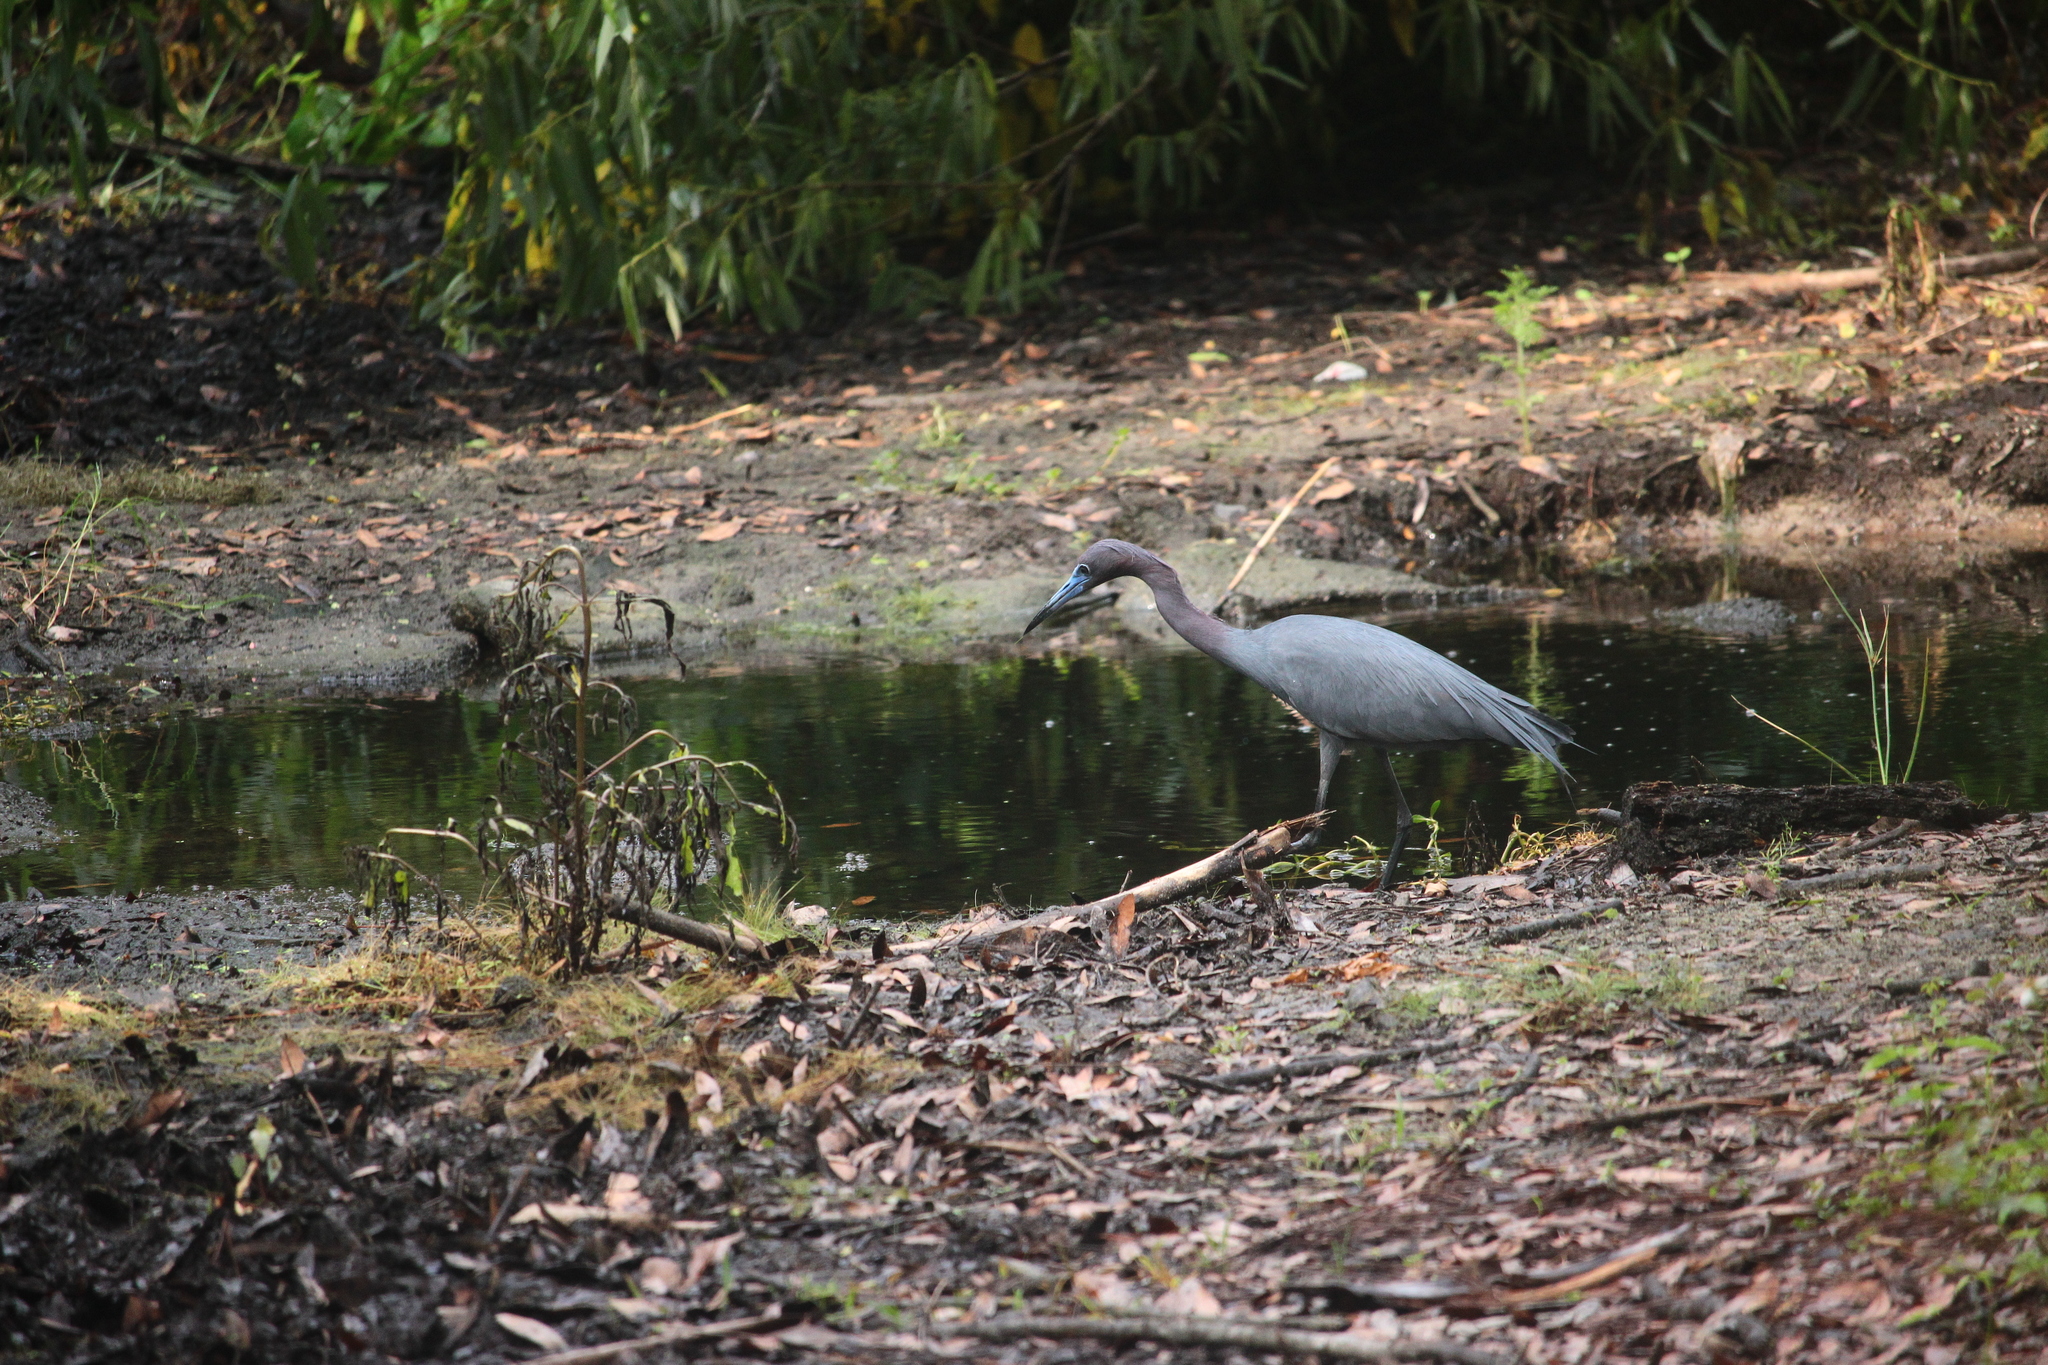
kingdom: Animalia
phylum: Chordata
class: Aves
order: Pelecaniformes
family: Ardeidae
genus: Egretta
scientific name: Egretta caerulea
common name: Little blue heron
